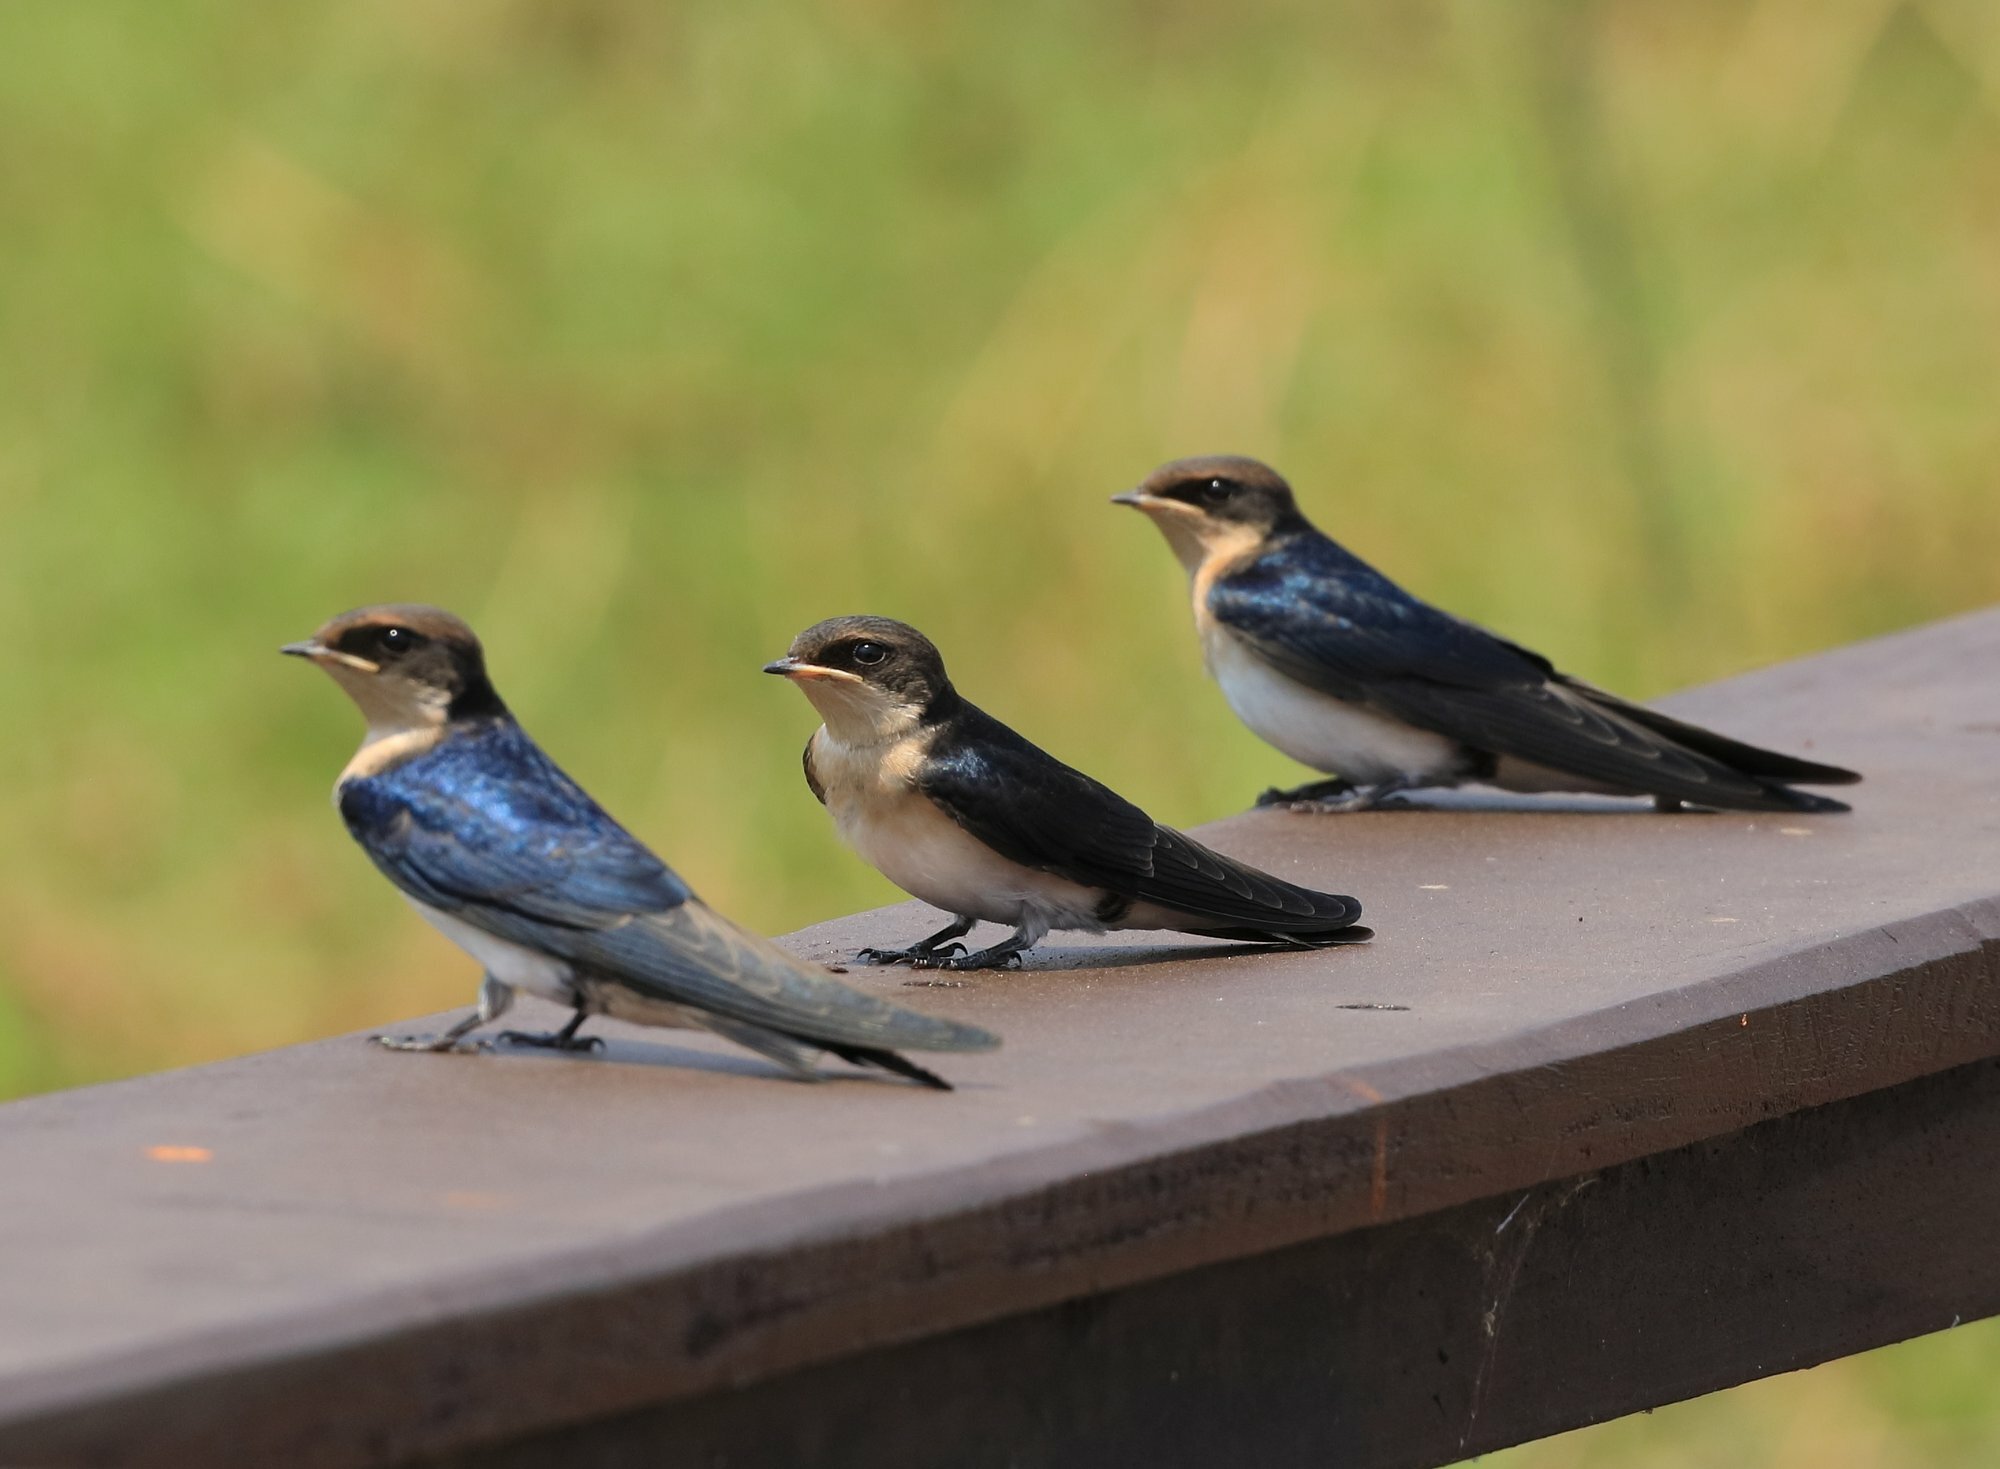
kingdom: Animalia
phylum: Chordata
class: Aves
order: Passeriformes
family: Hirundinidae
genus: Hirundo
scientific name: Hirundo smithii
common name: Wire-tailed swallow
